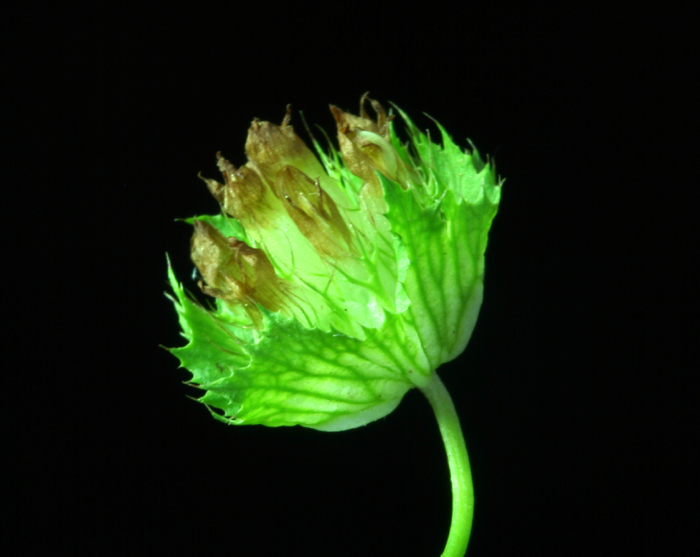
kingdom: Plantae
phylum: Tracheophyta
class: Magnoliopsida
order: Fabales
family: Fabaceae
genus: Trifolium
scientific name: Trifolium cyathiferum
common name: Bowl clover
